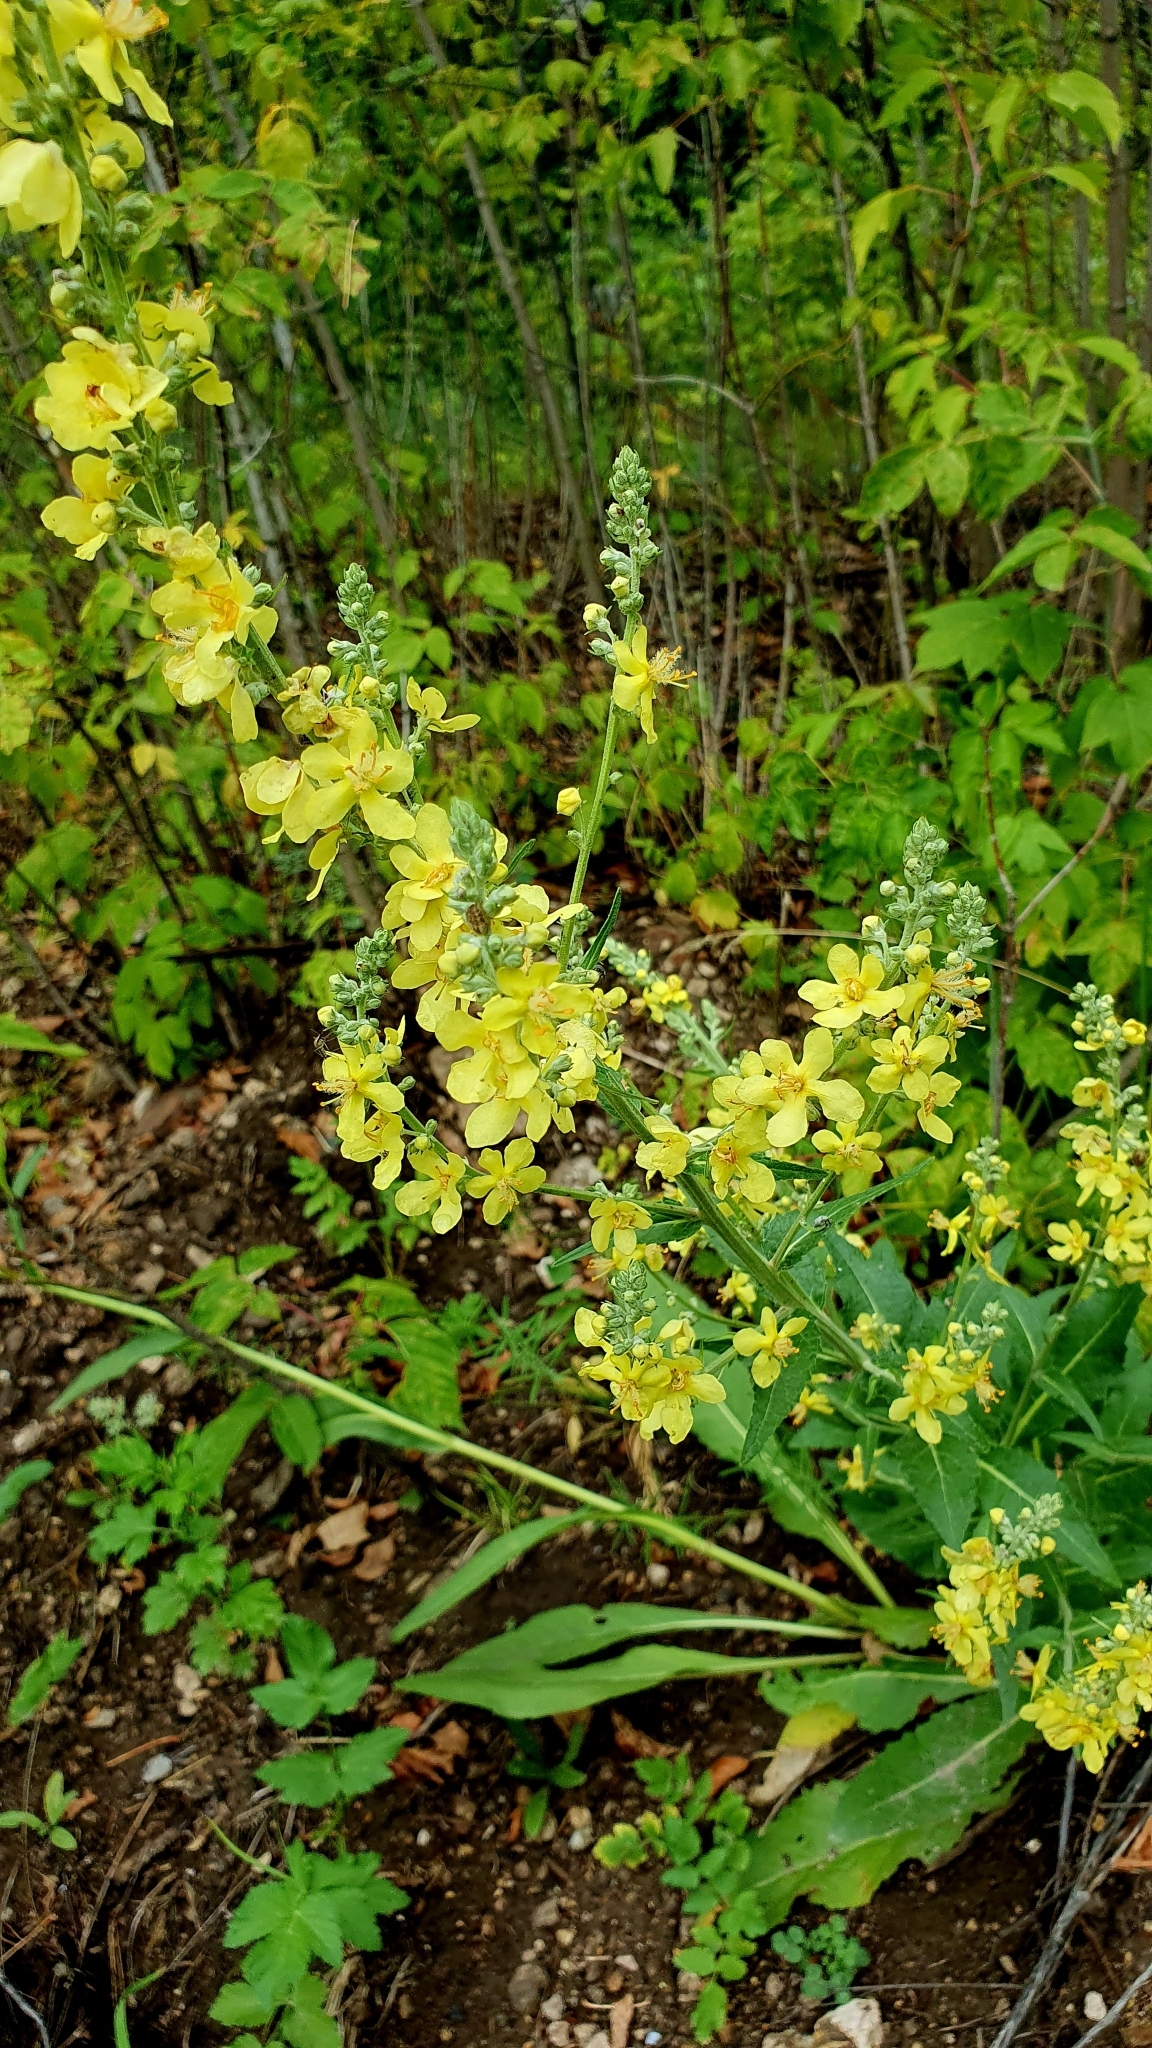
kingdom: Plantae
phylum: Tracheophyta
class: Magnoliopsida
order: Lamiales
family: Scrophulariaceae
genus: Verbascum
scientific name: Verbascum lychnitis
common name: White mullein
